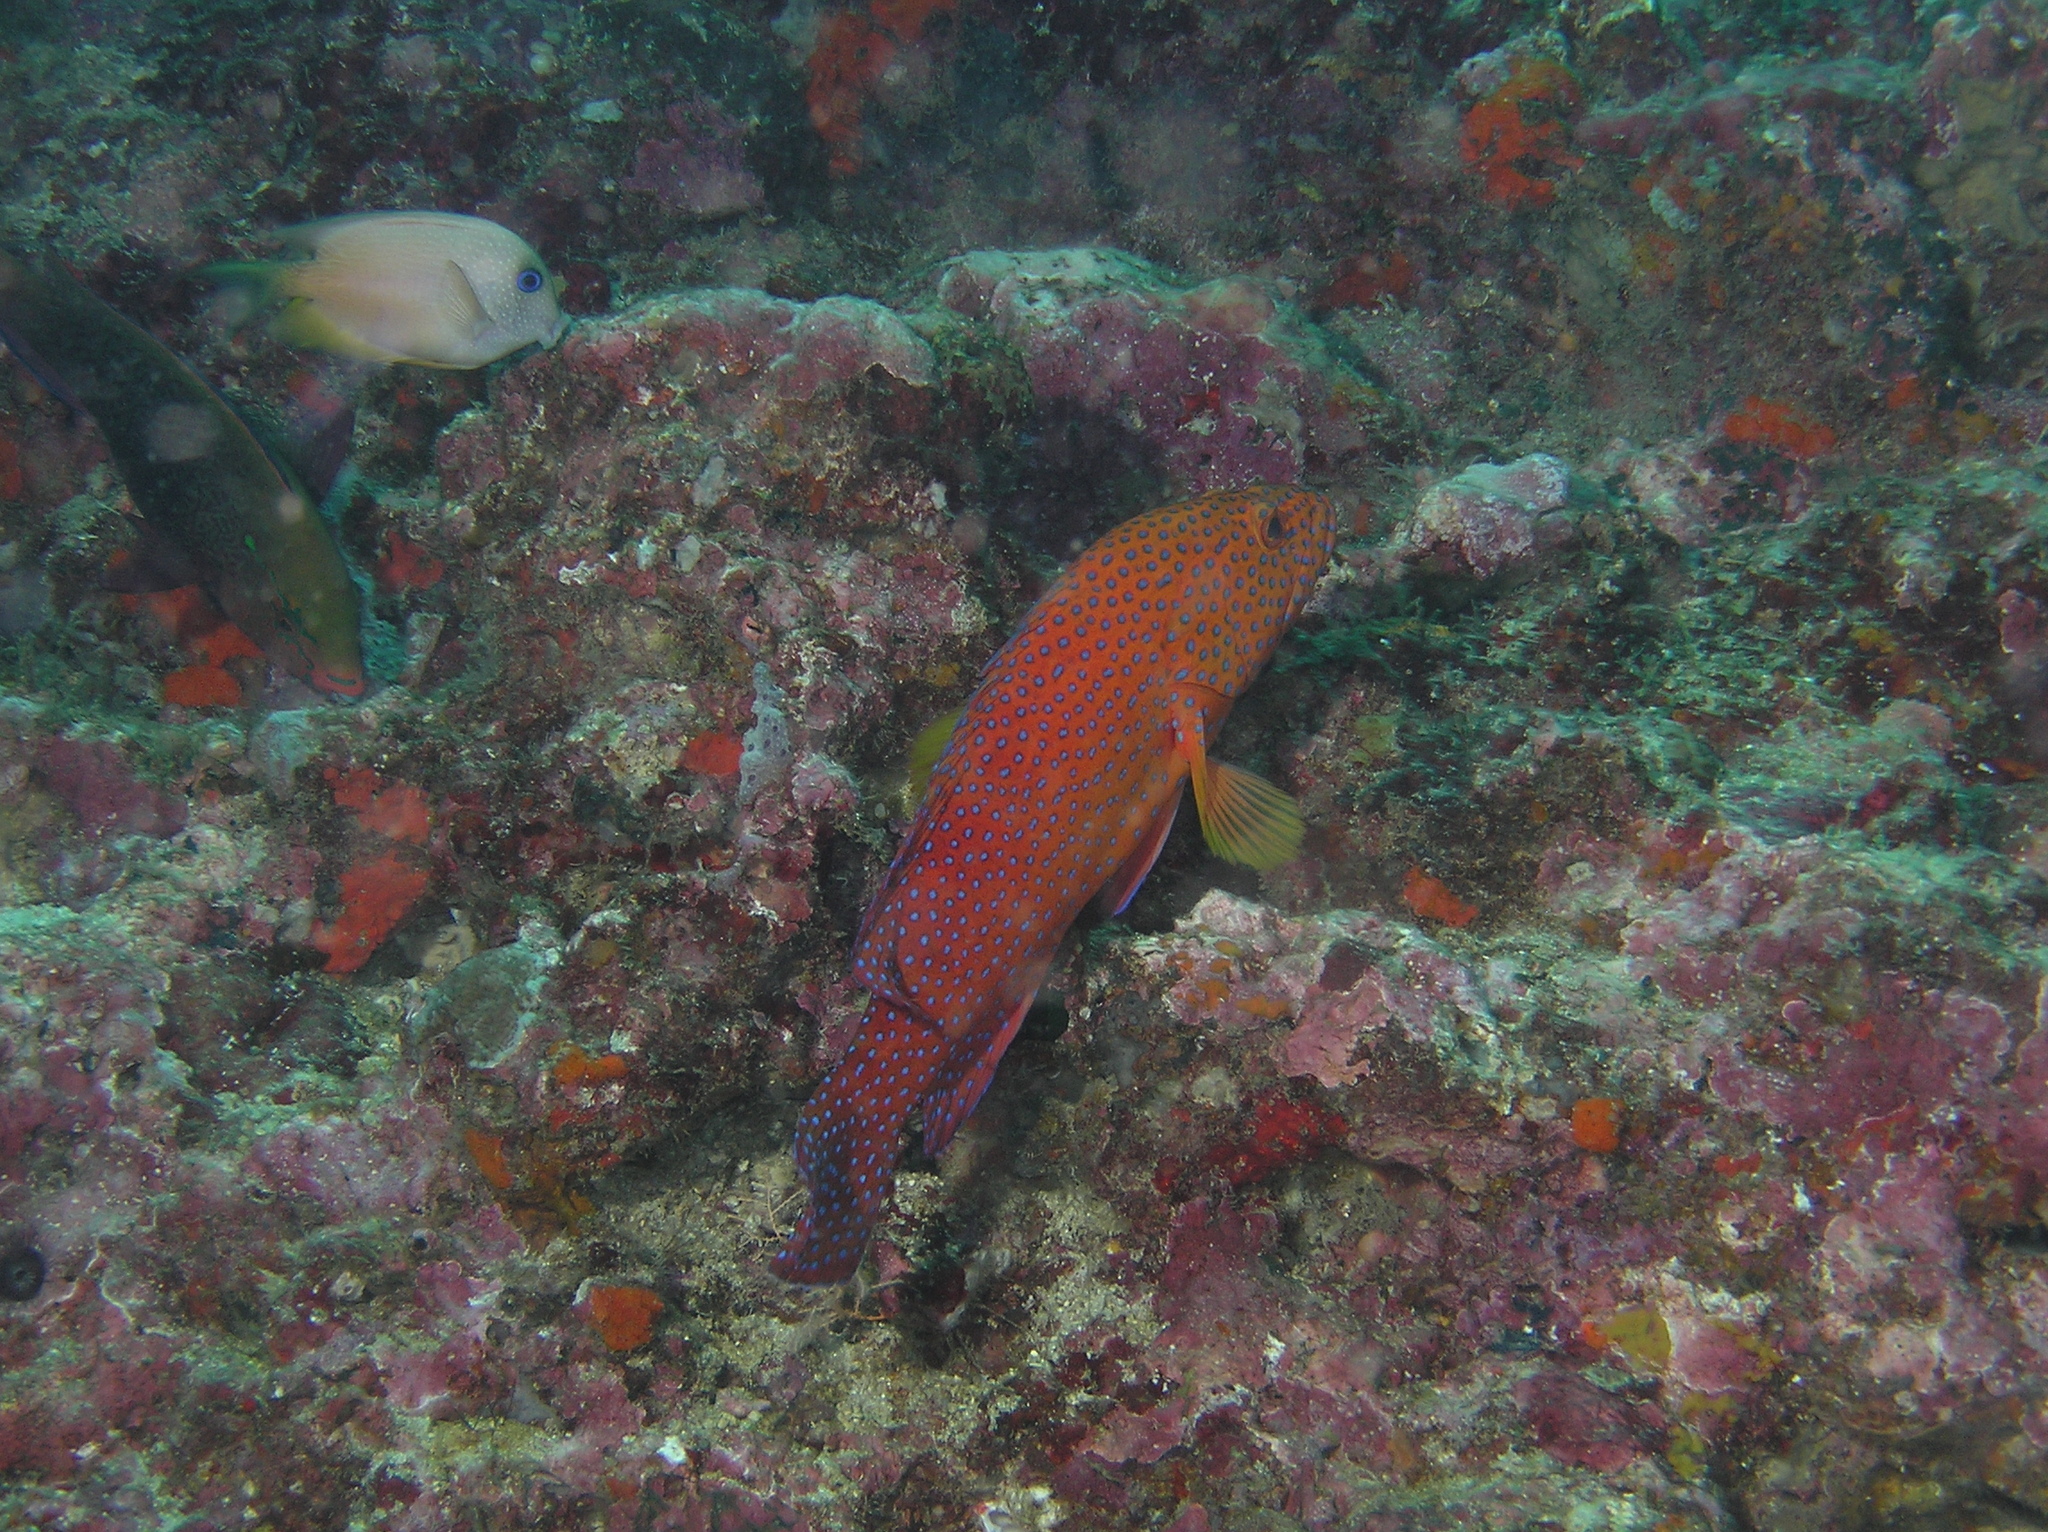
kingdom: Animalia
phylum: Chordata
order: Perciformes
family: Serranidae
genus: Cephalopholis
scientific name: Cephalopholis miniata
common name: Coral hind
